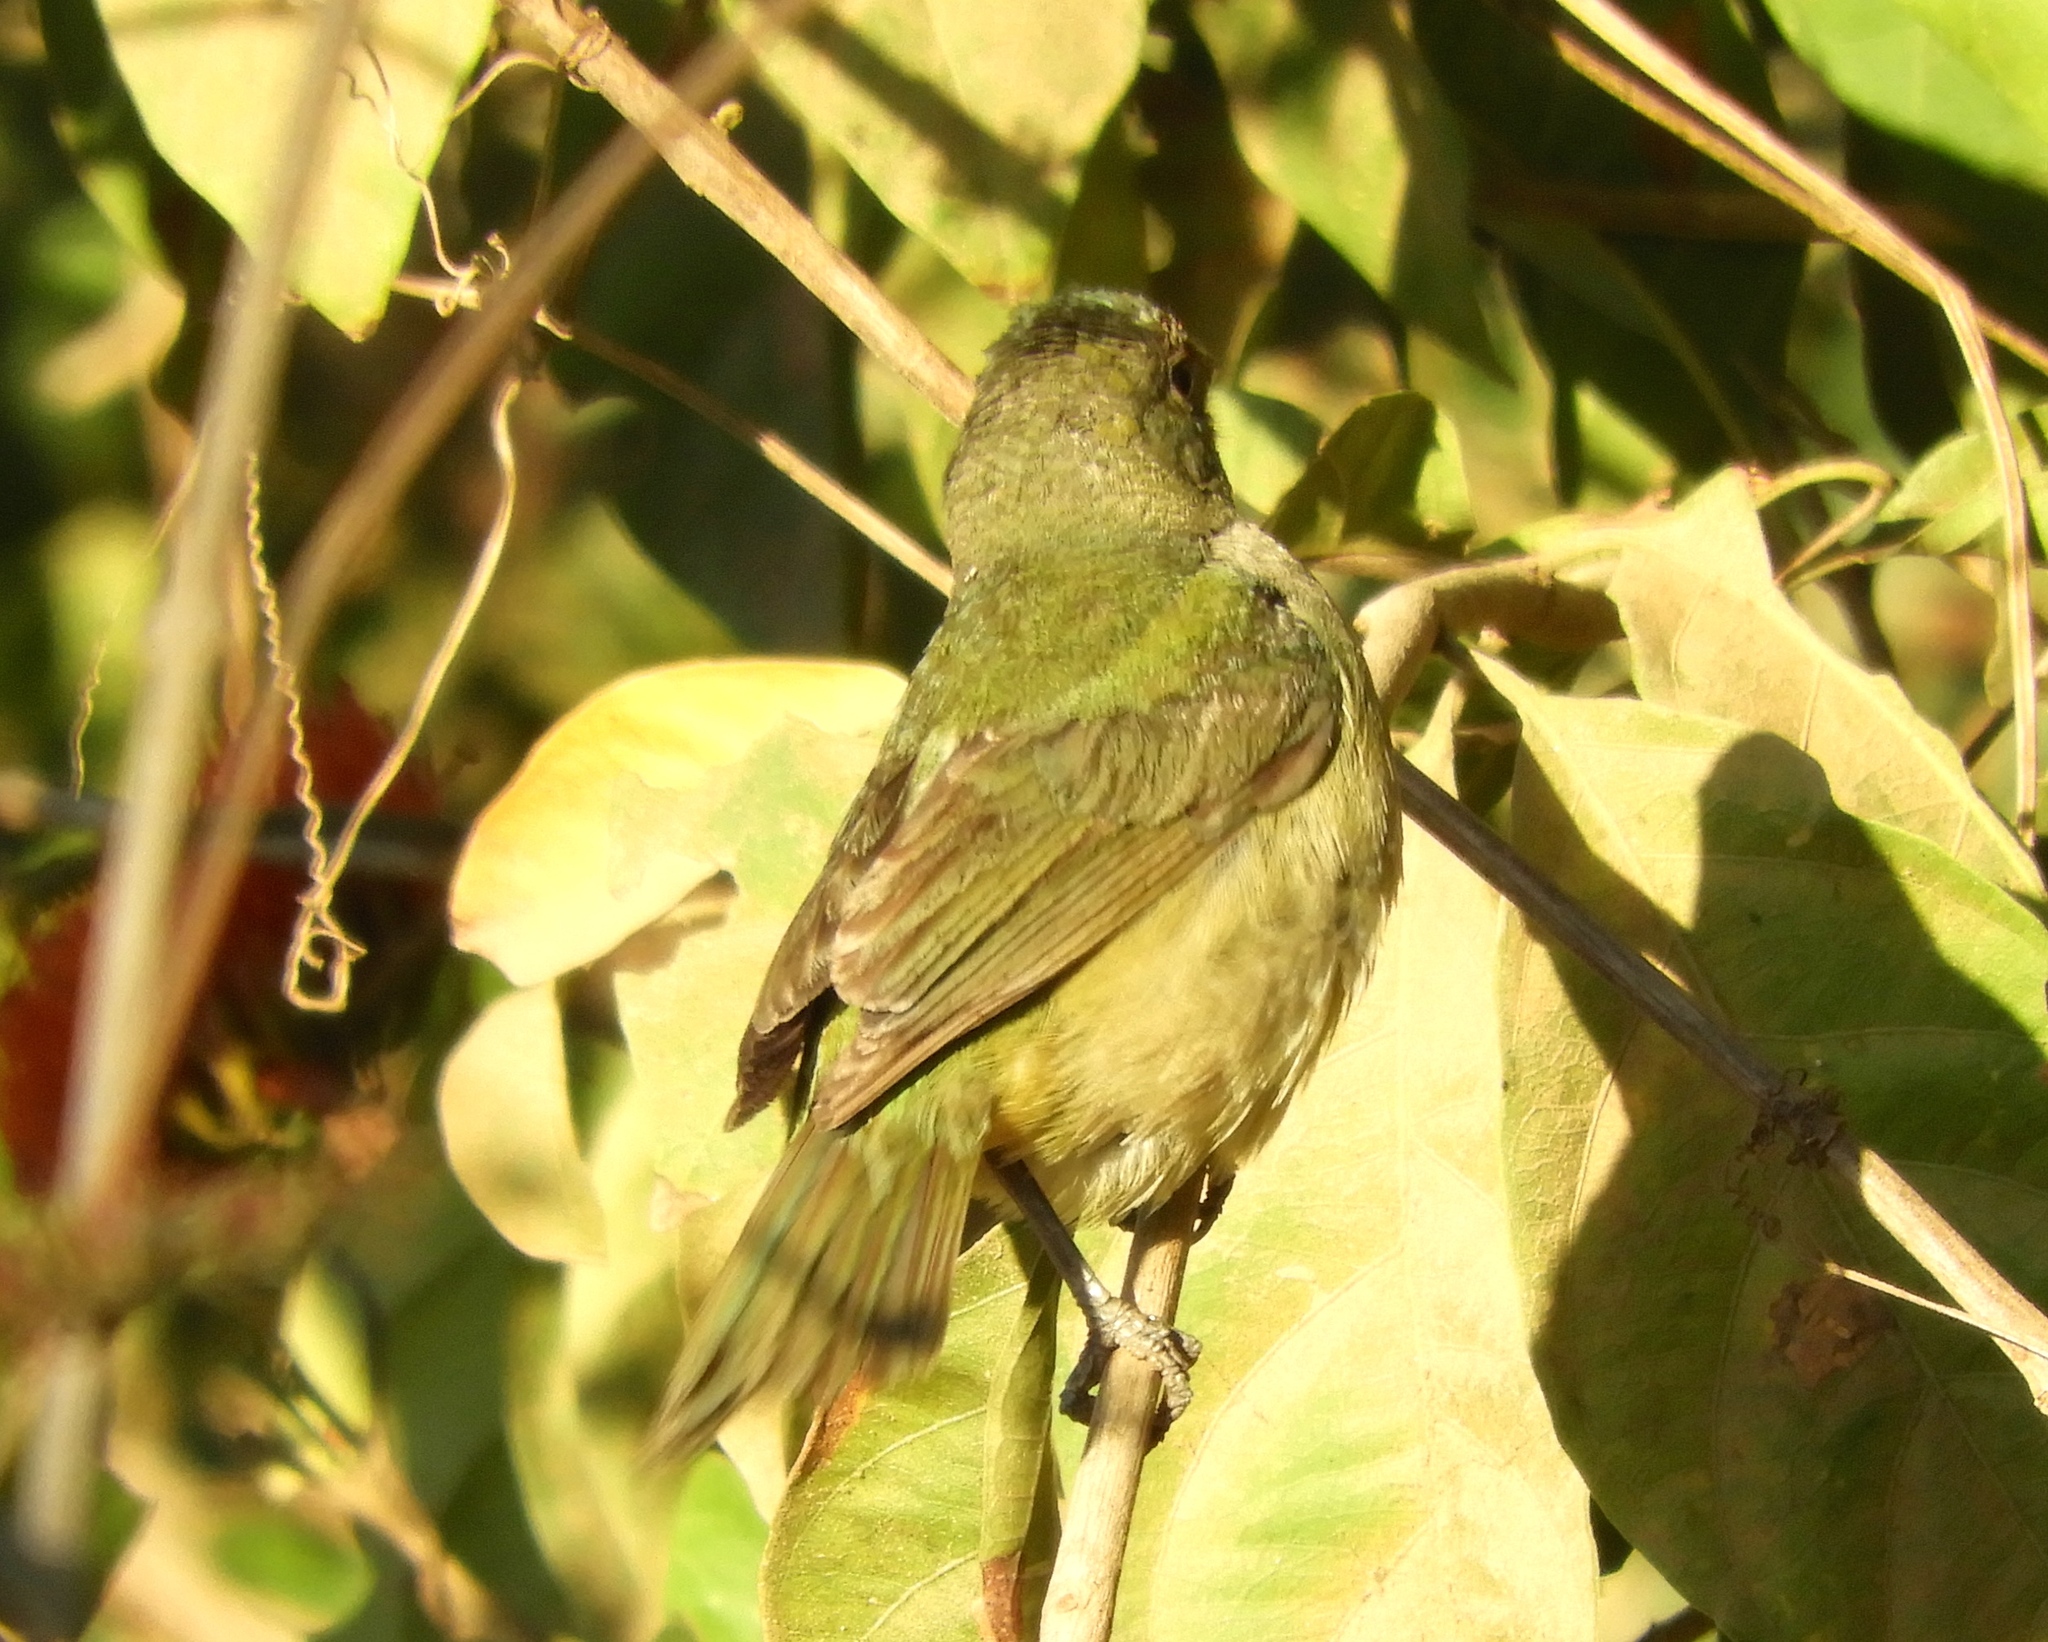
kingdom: Animalia
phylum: Chordata
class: Aves
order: Passeriformes
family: Cardinalidae
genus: Passerina
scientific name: Passerina ciris
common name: Painted bunting
